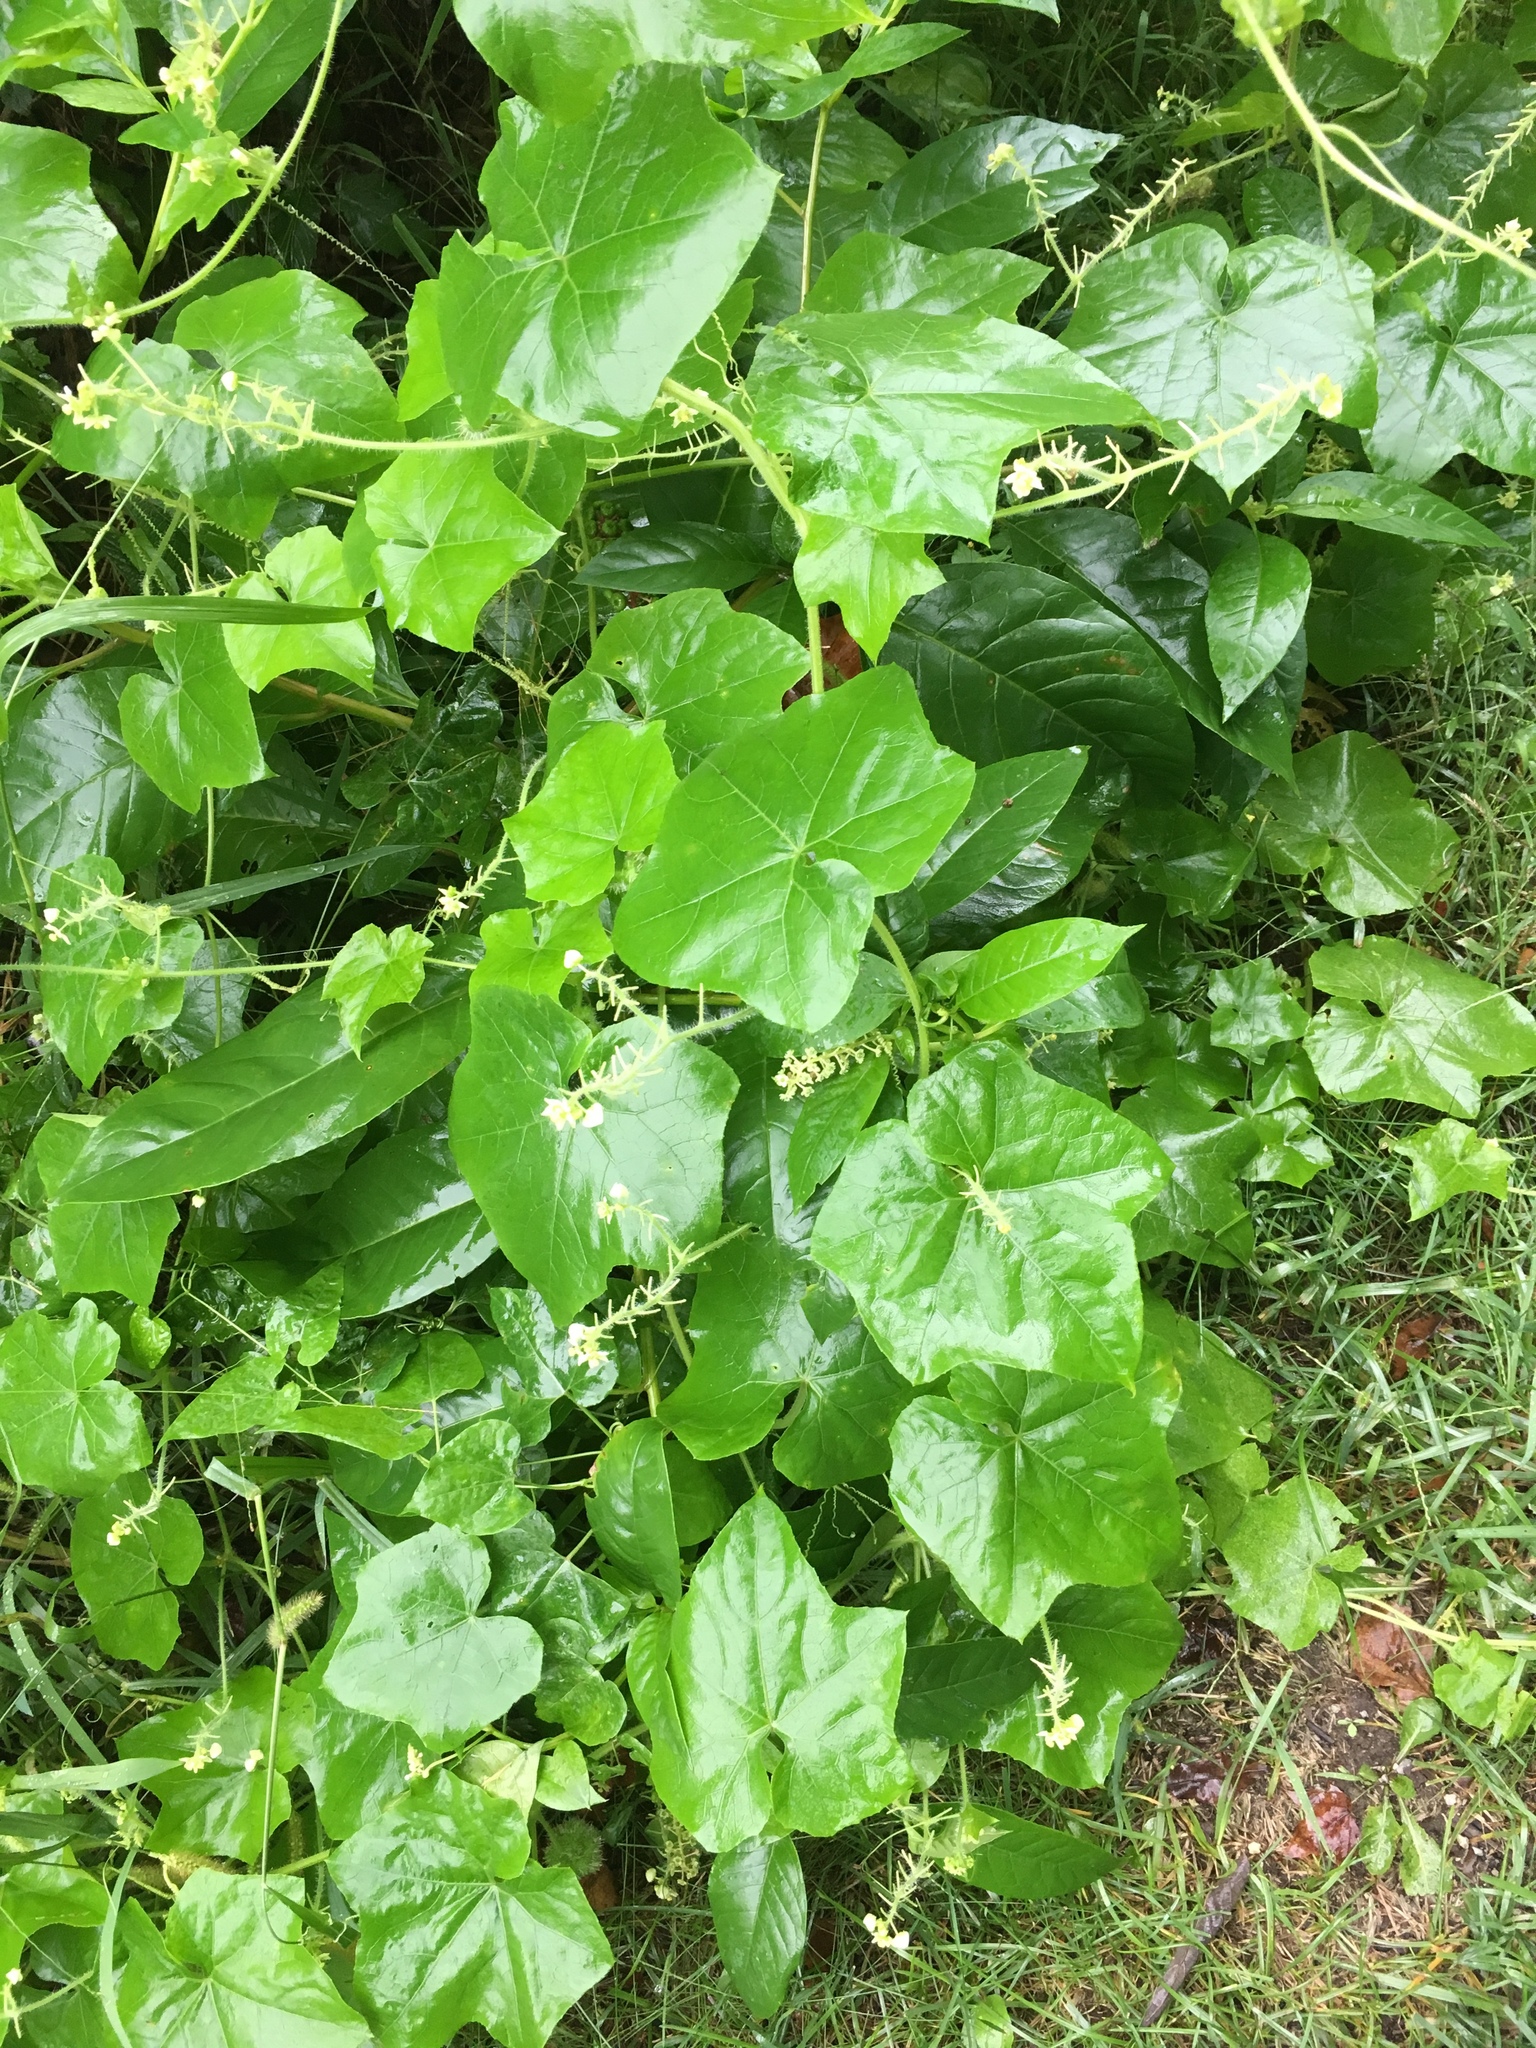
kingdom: Plantae
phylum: Tracheophyta
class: Magnoliopsida
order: Cucurbitales
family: Cucurbitaceae
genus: Sicyos
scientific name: Sicyos angulatus
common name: Angled burr cucumber
